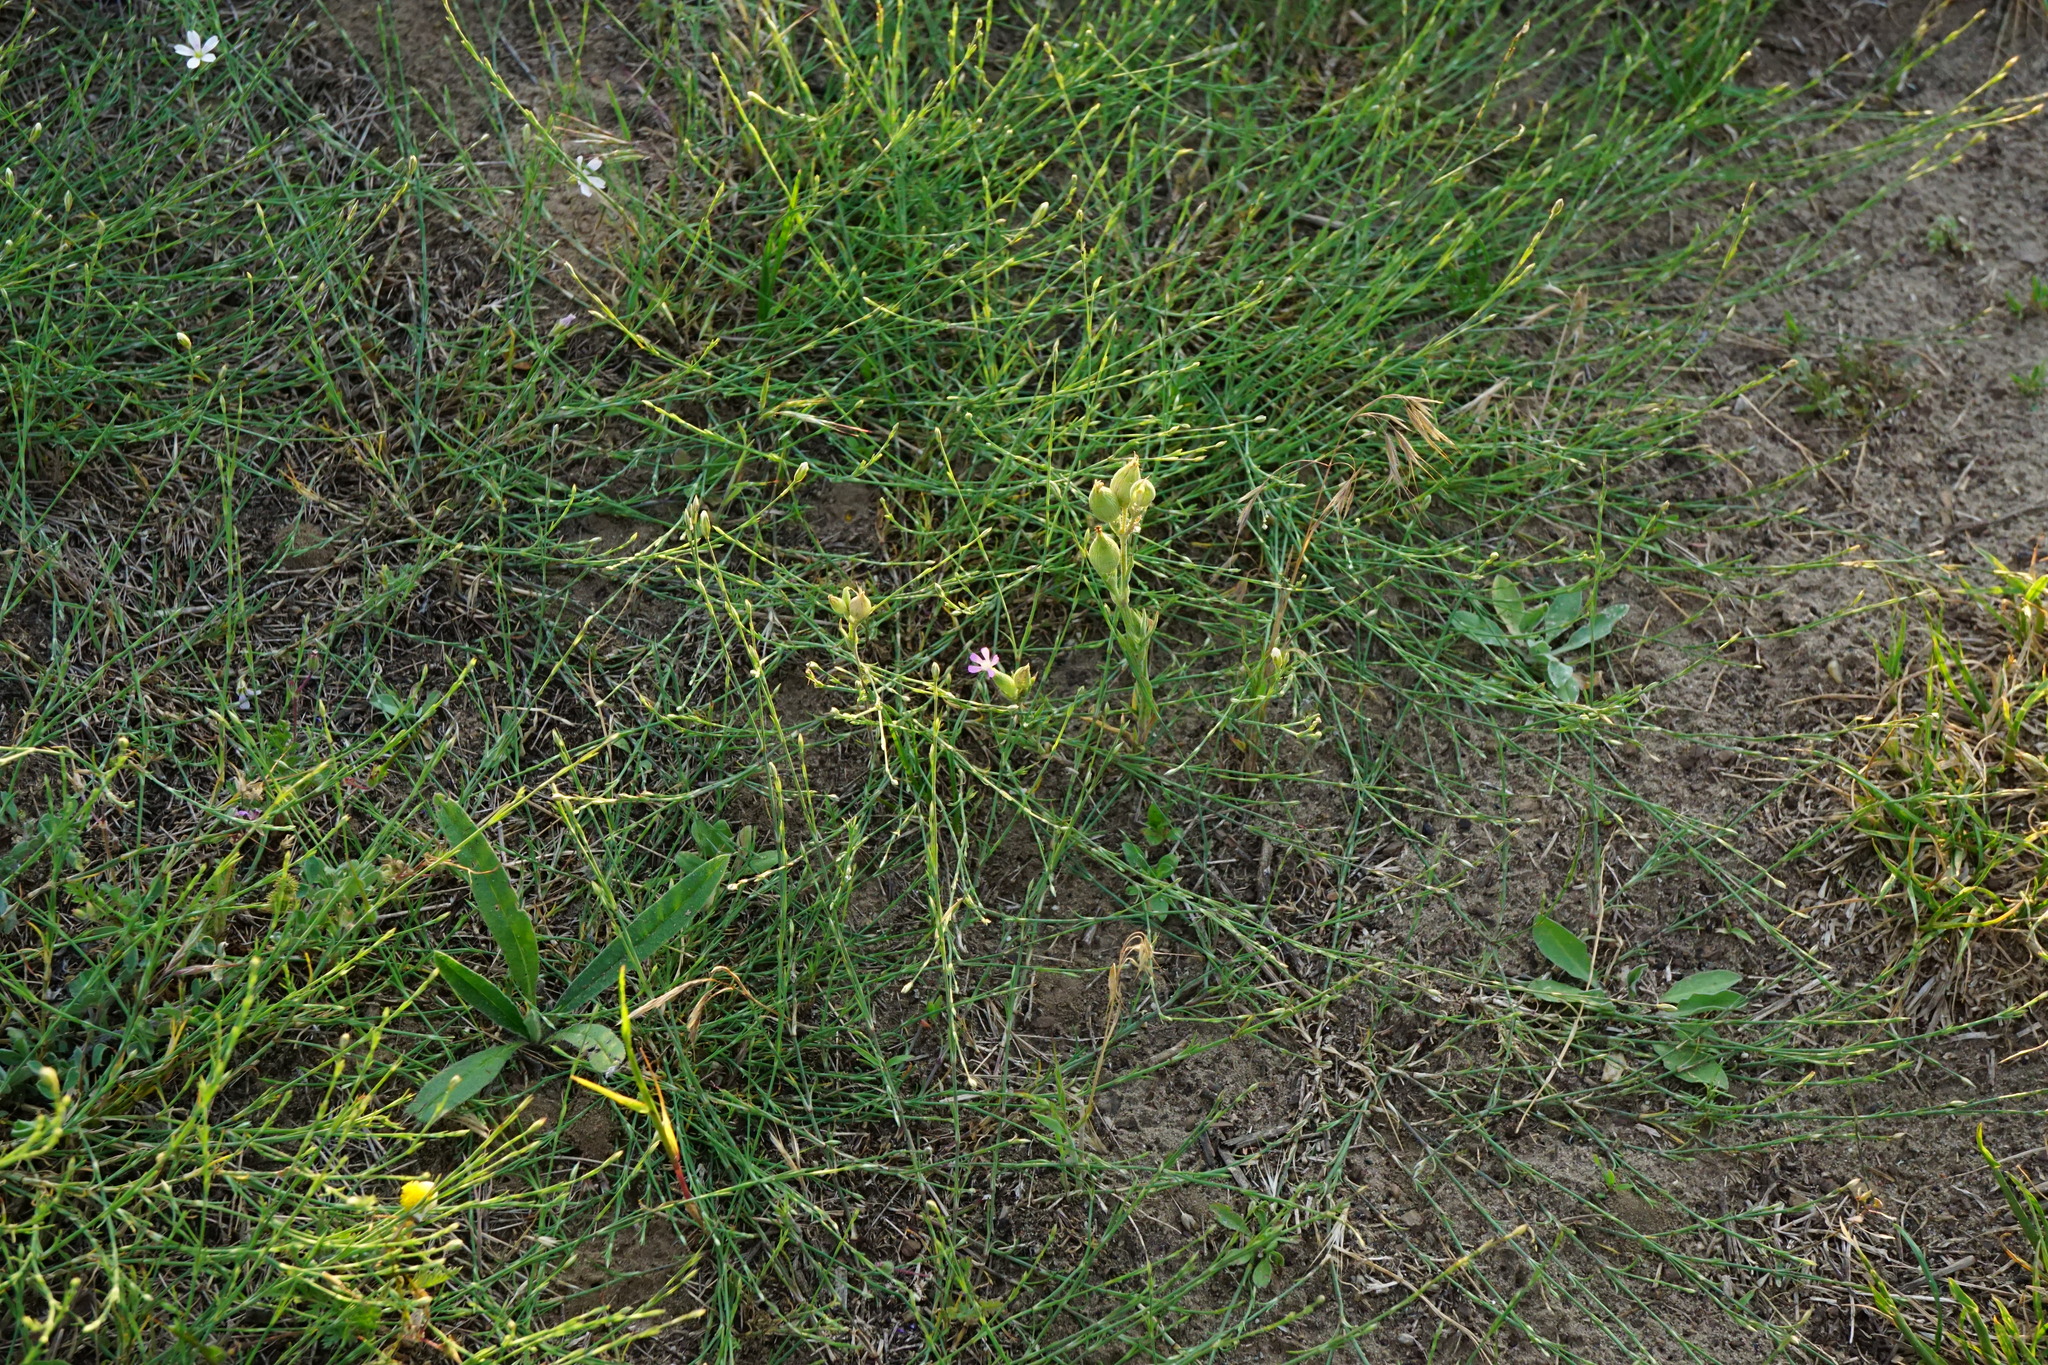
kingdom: Plantae
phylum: Tracheophyta
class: Magnoliopsida
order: Caryophyllales
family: Caryophyllaceae
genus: Silene
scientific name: Silene conica
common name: Sand catchfly
